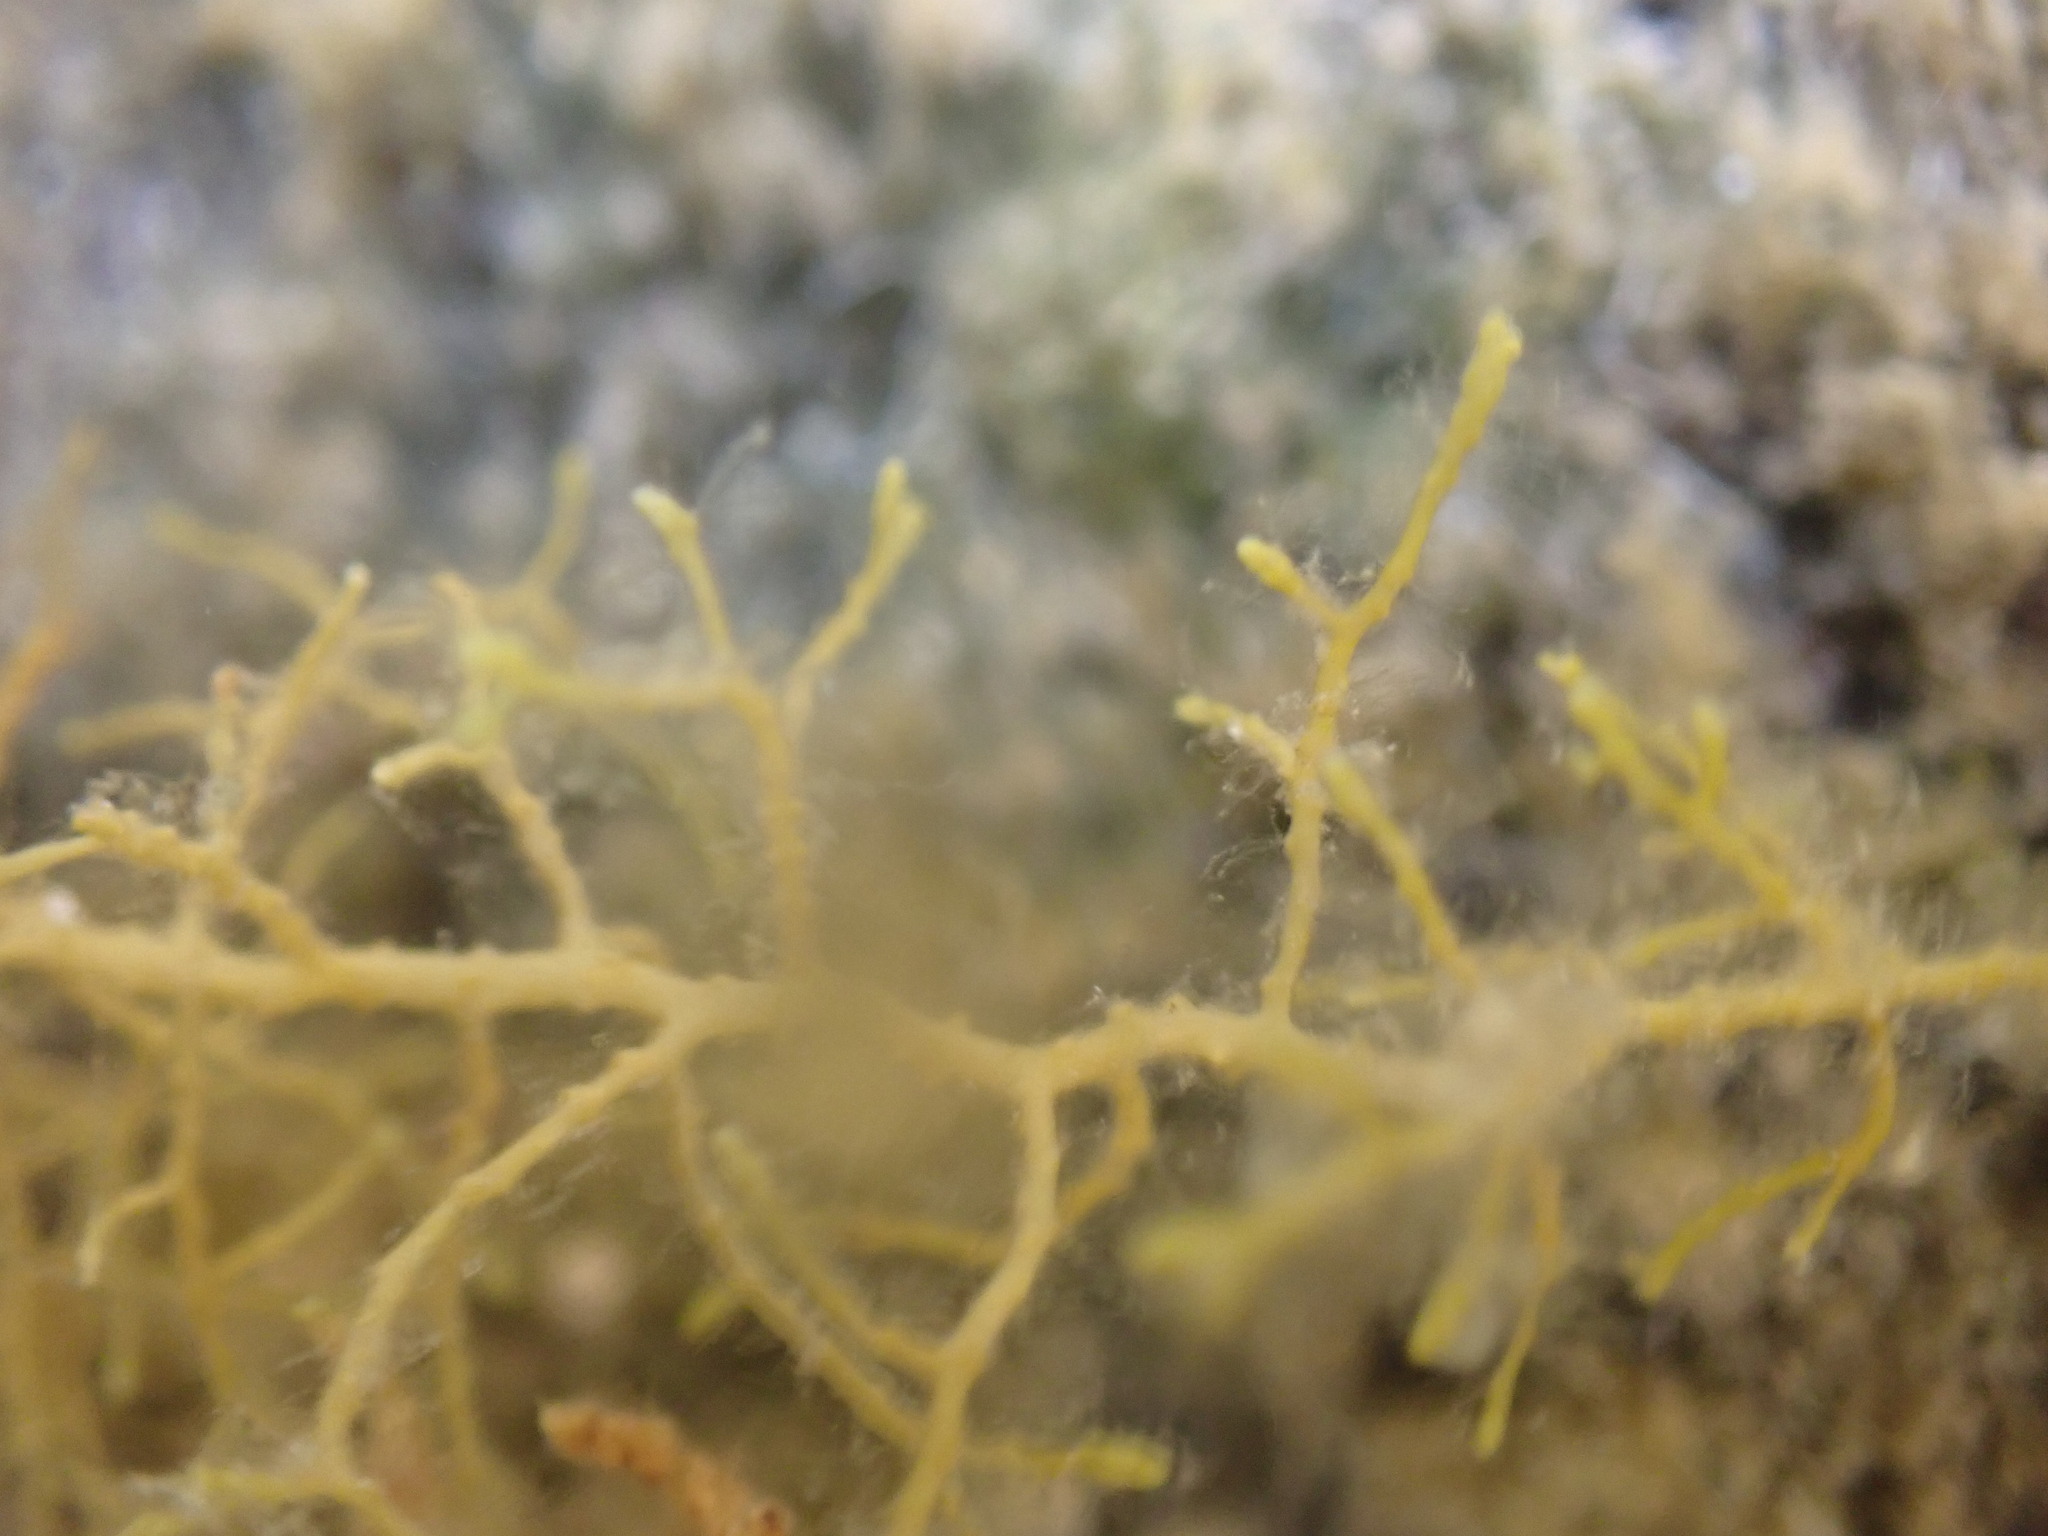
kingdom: Chromista
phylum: Ochrophyta
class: Phaeophyceae
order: Fucales
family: Sargassaceae
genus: Cystoseira
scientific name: Cystoseira humilis
